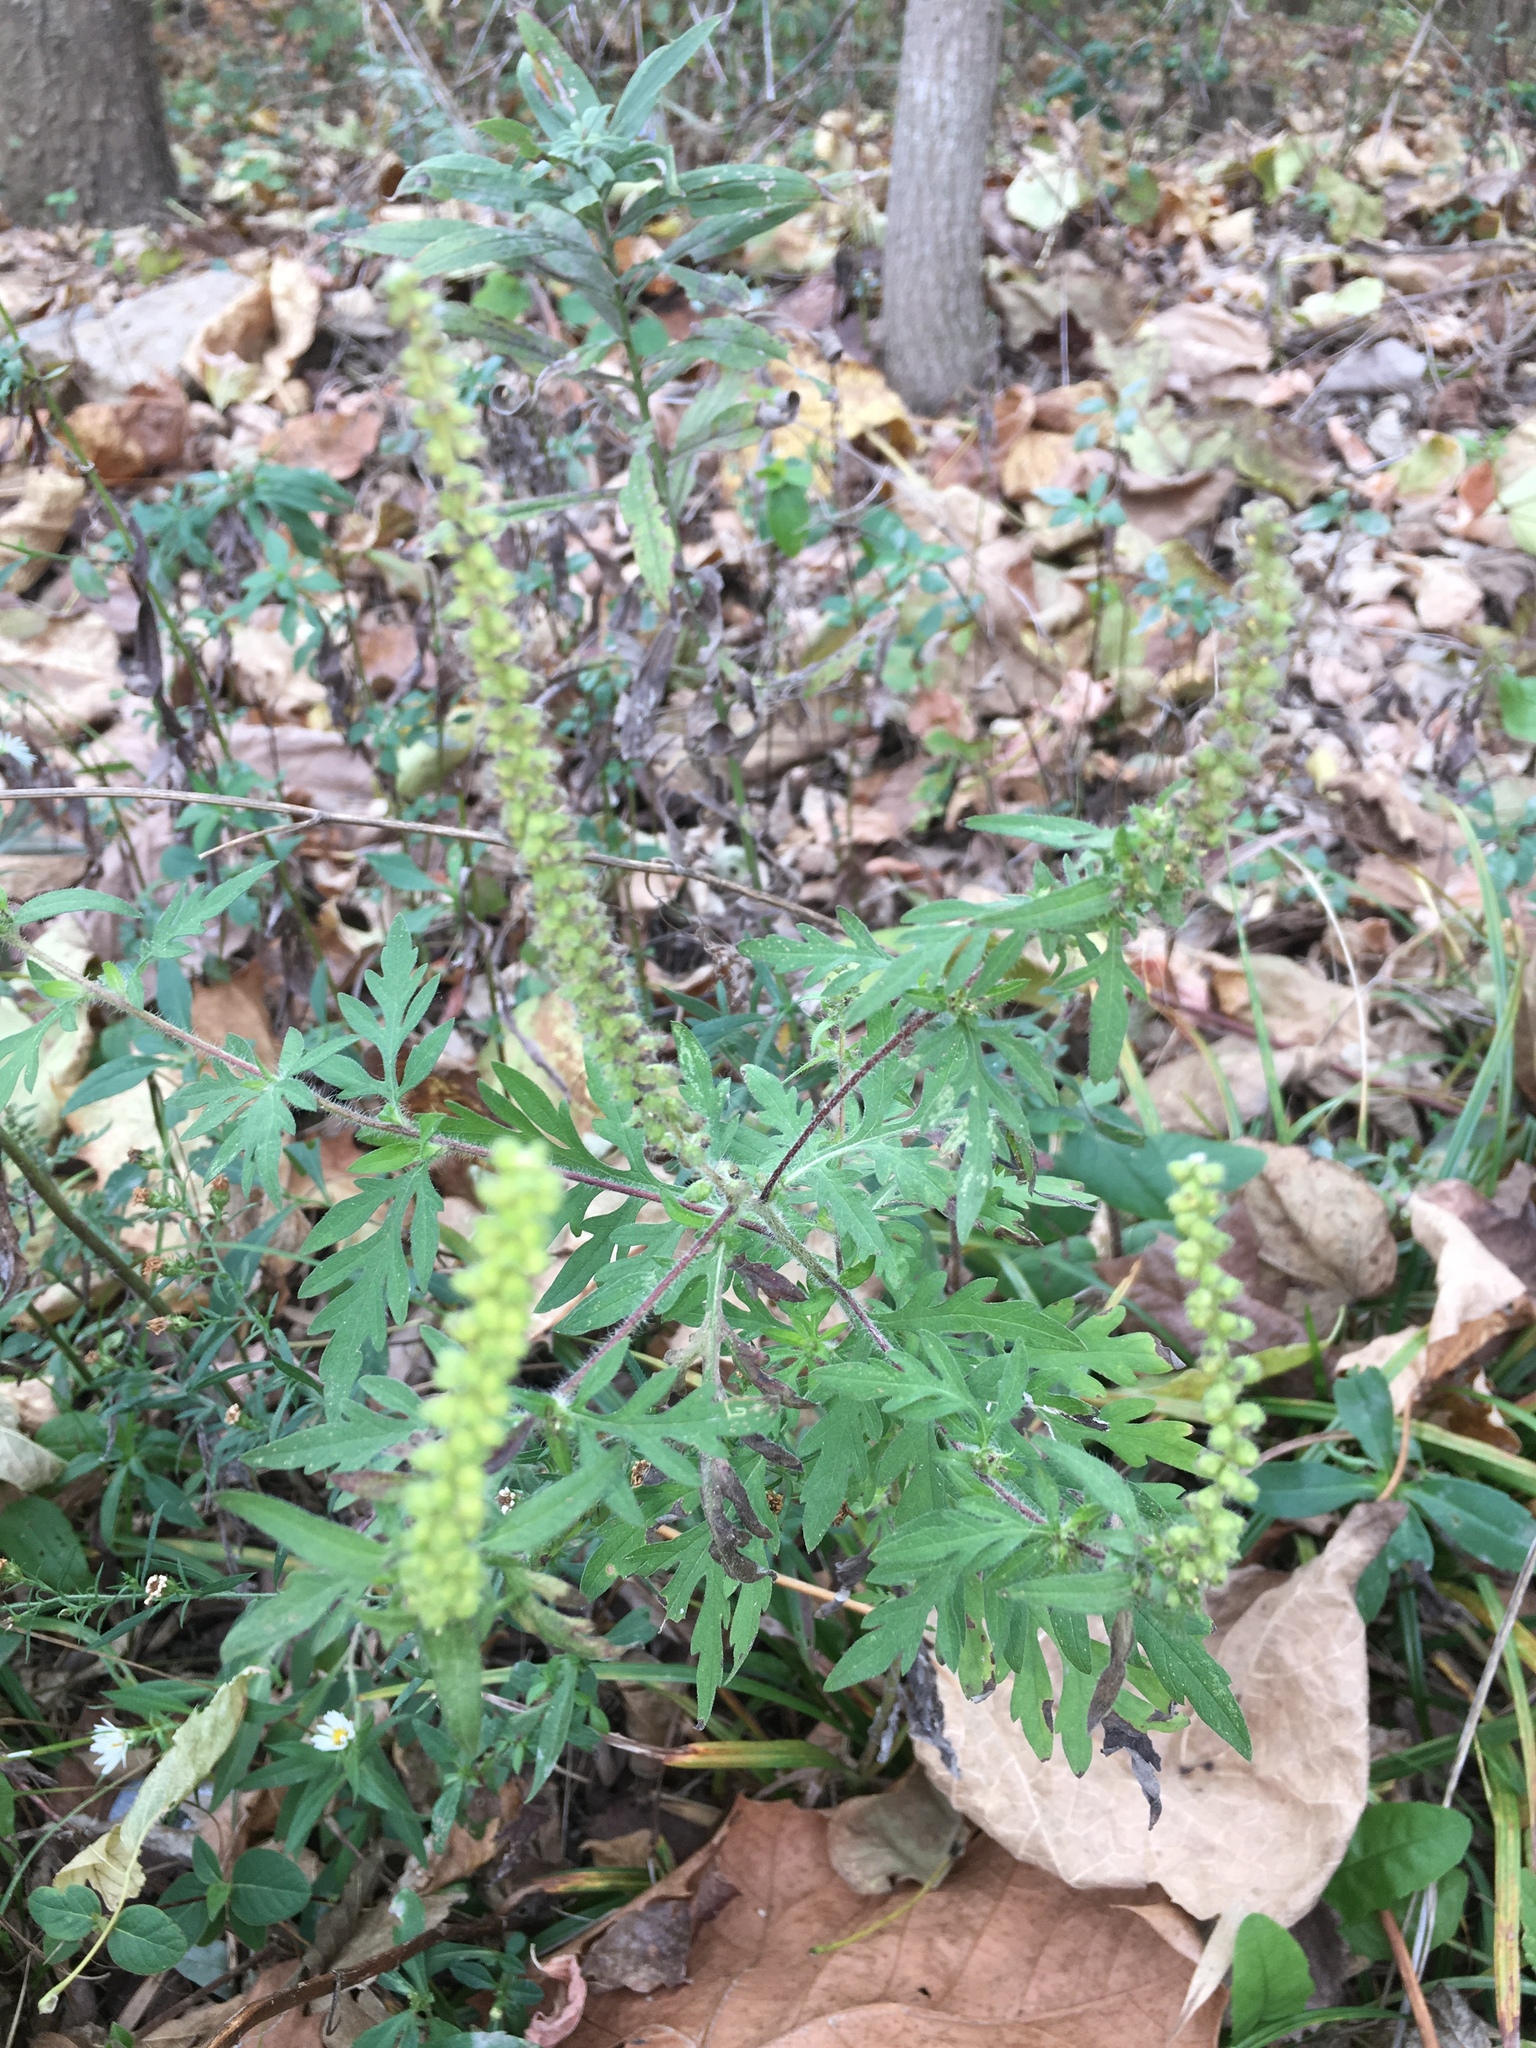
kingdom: Plantae
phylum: Tracheophyta
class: Magnoliopsida
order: Asterales
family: Asteraceae
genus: Ambrosia
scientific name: Ambrosia artemisiifolia
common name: Annual ragweed
